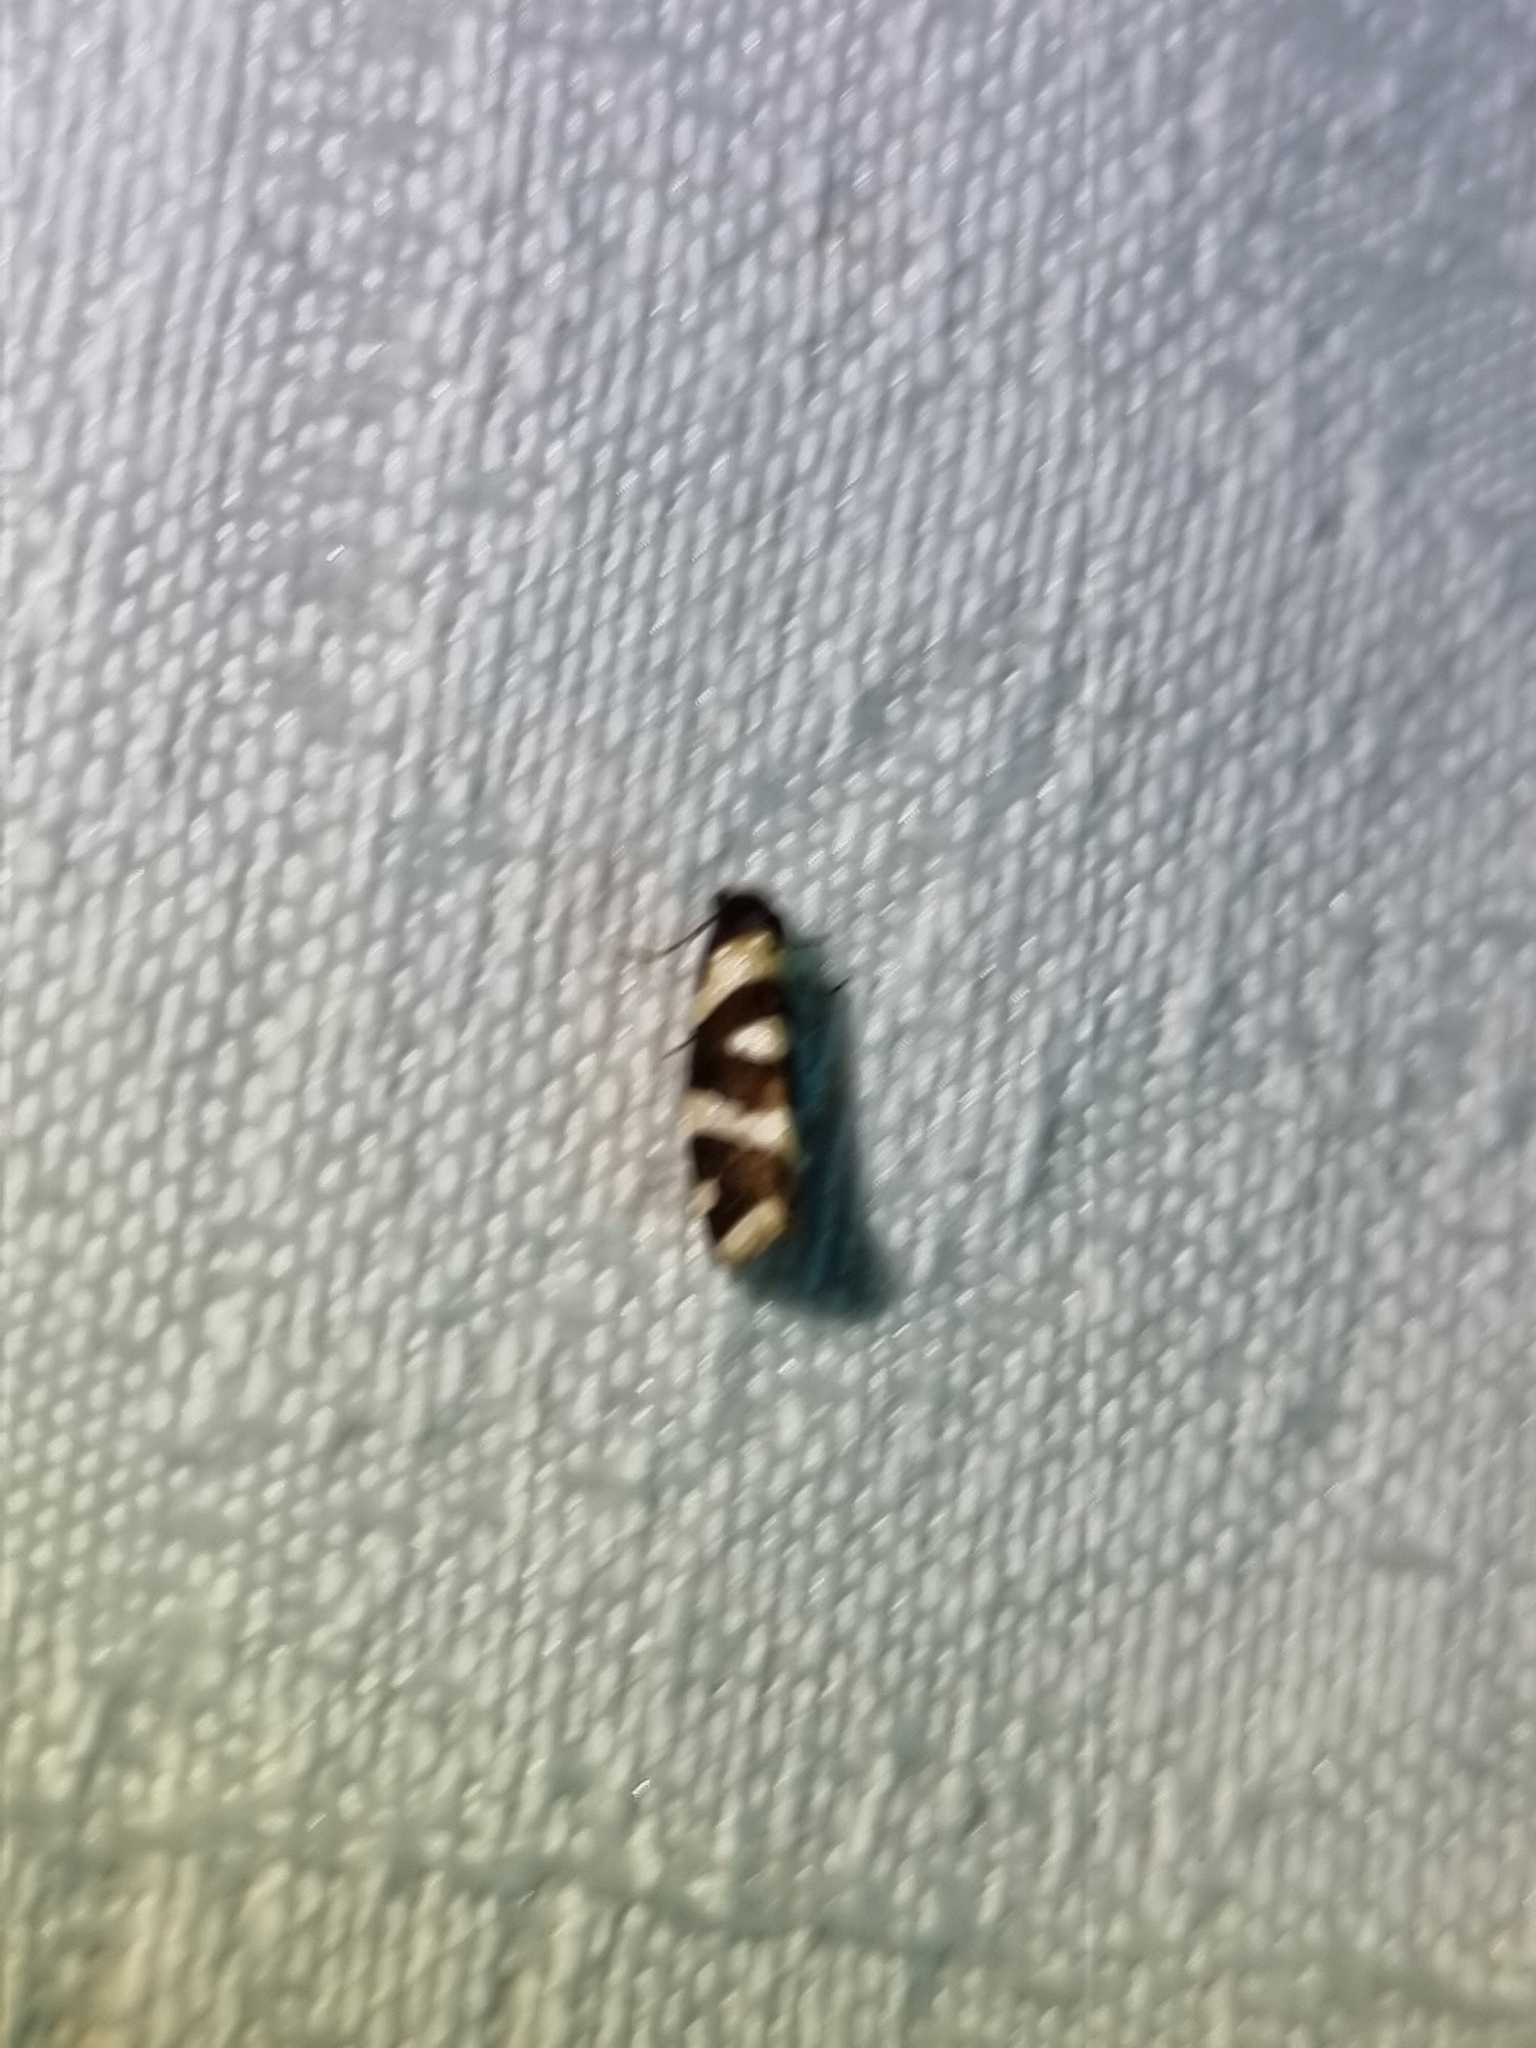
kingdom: Animalia
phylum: Arthropoda
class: Insecta
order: Lepidoptera
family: Psychidae
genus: Lepidoscia
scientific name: Lepidoscia dicranota
